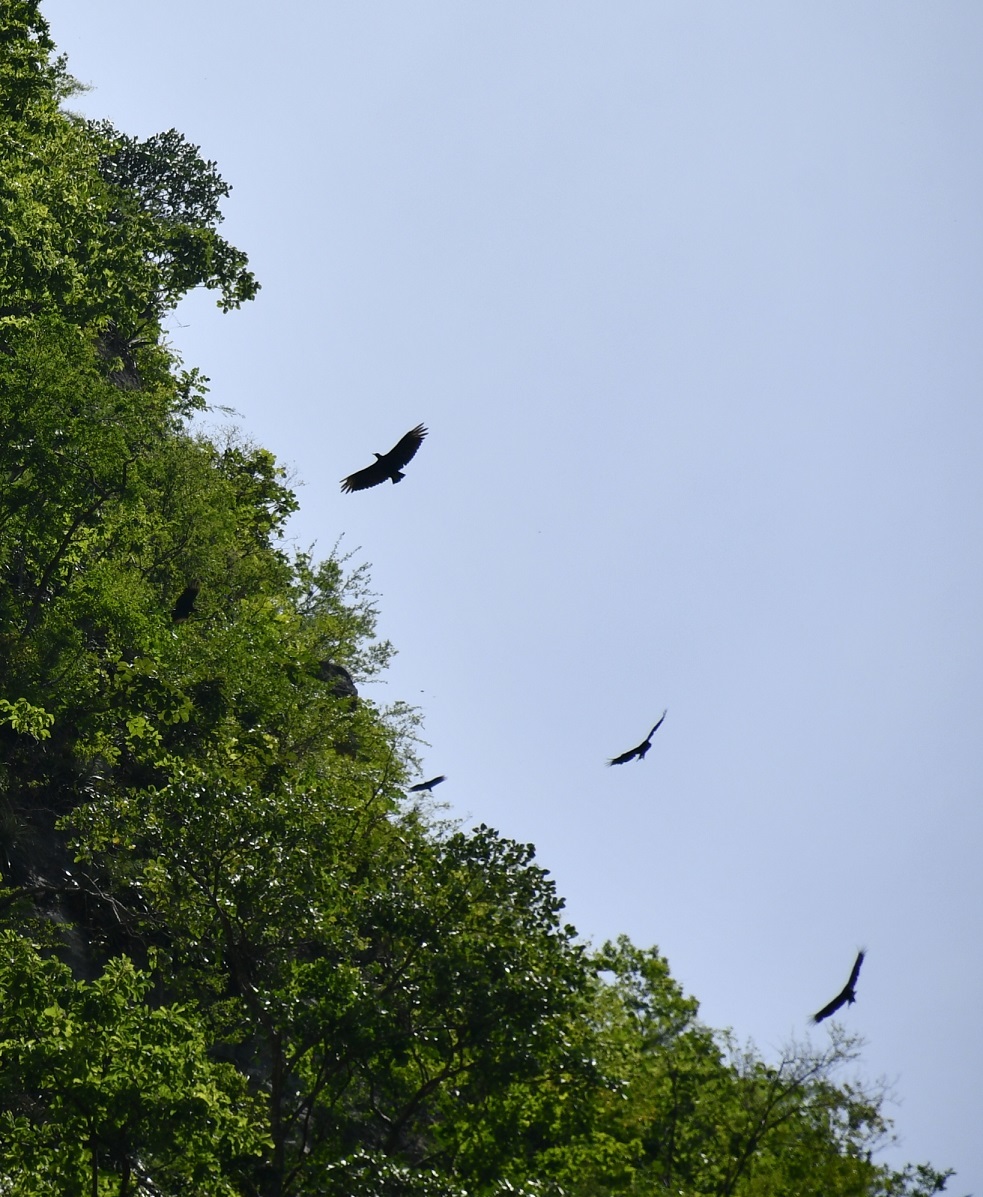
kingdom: Animalia
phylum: Chordata
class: Aves
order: Accipitriformes
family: Cathartidae
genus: Coragyps
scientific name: Coragyps atratus
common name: Black vulture
